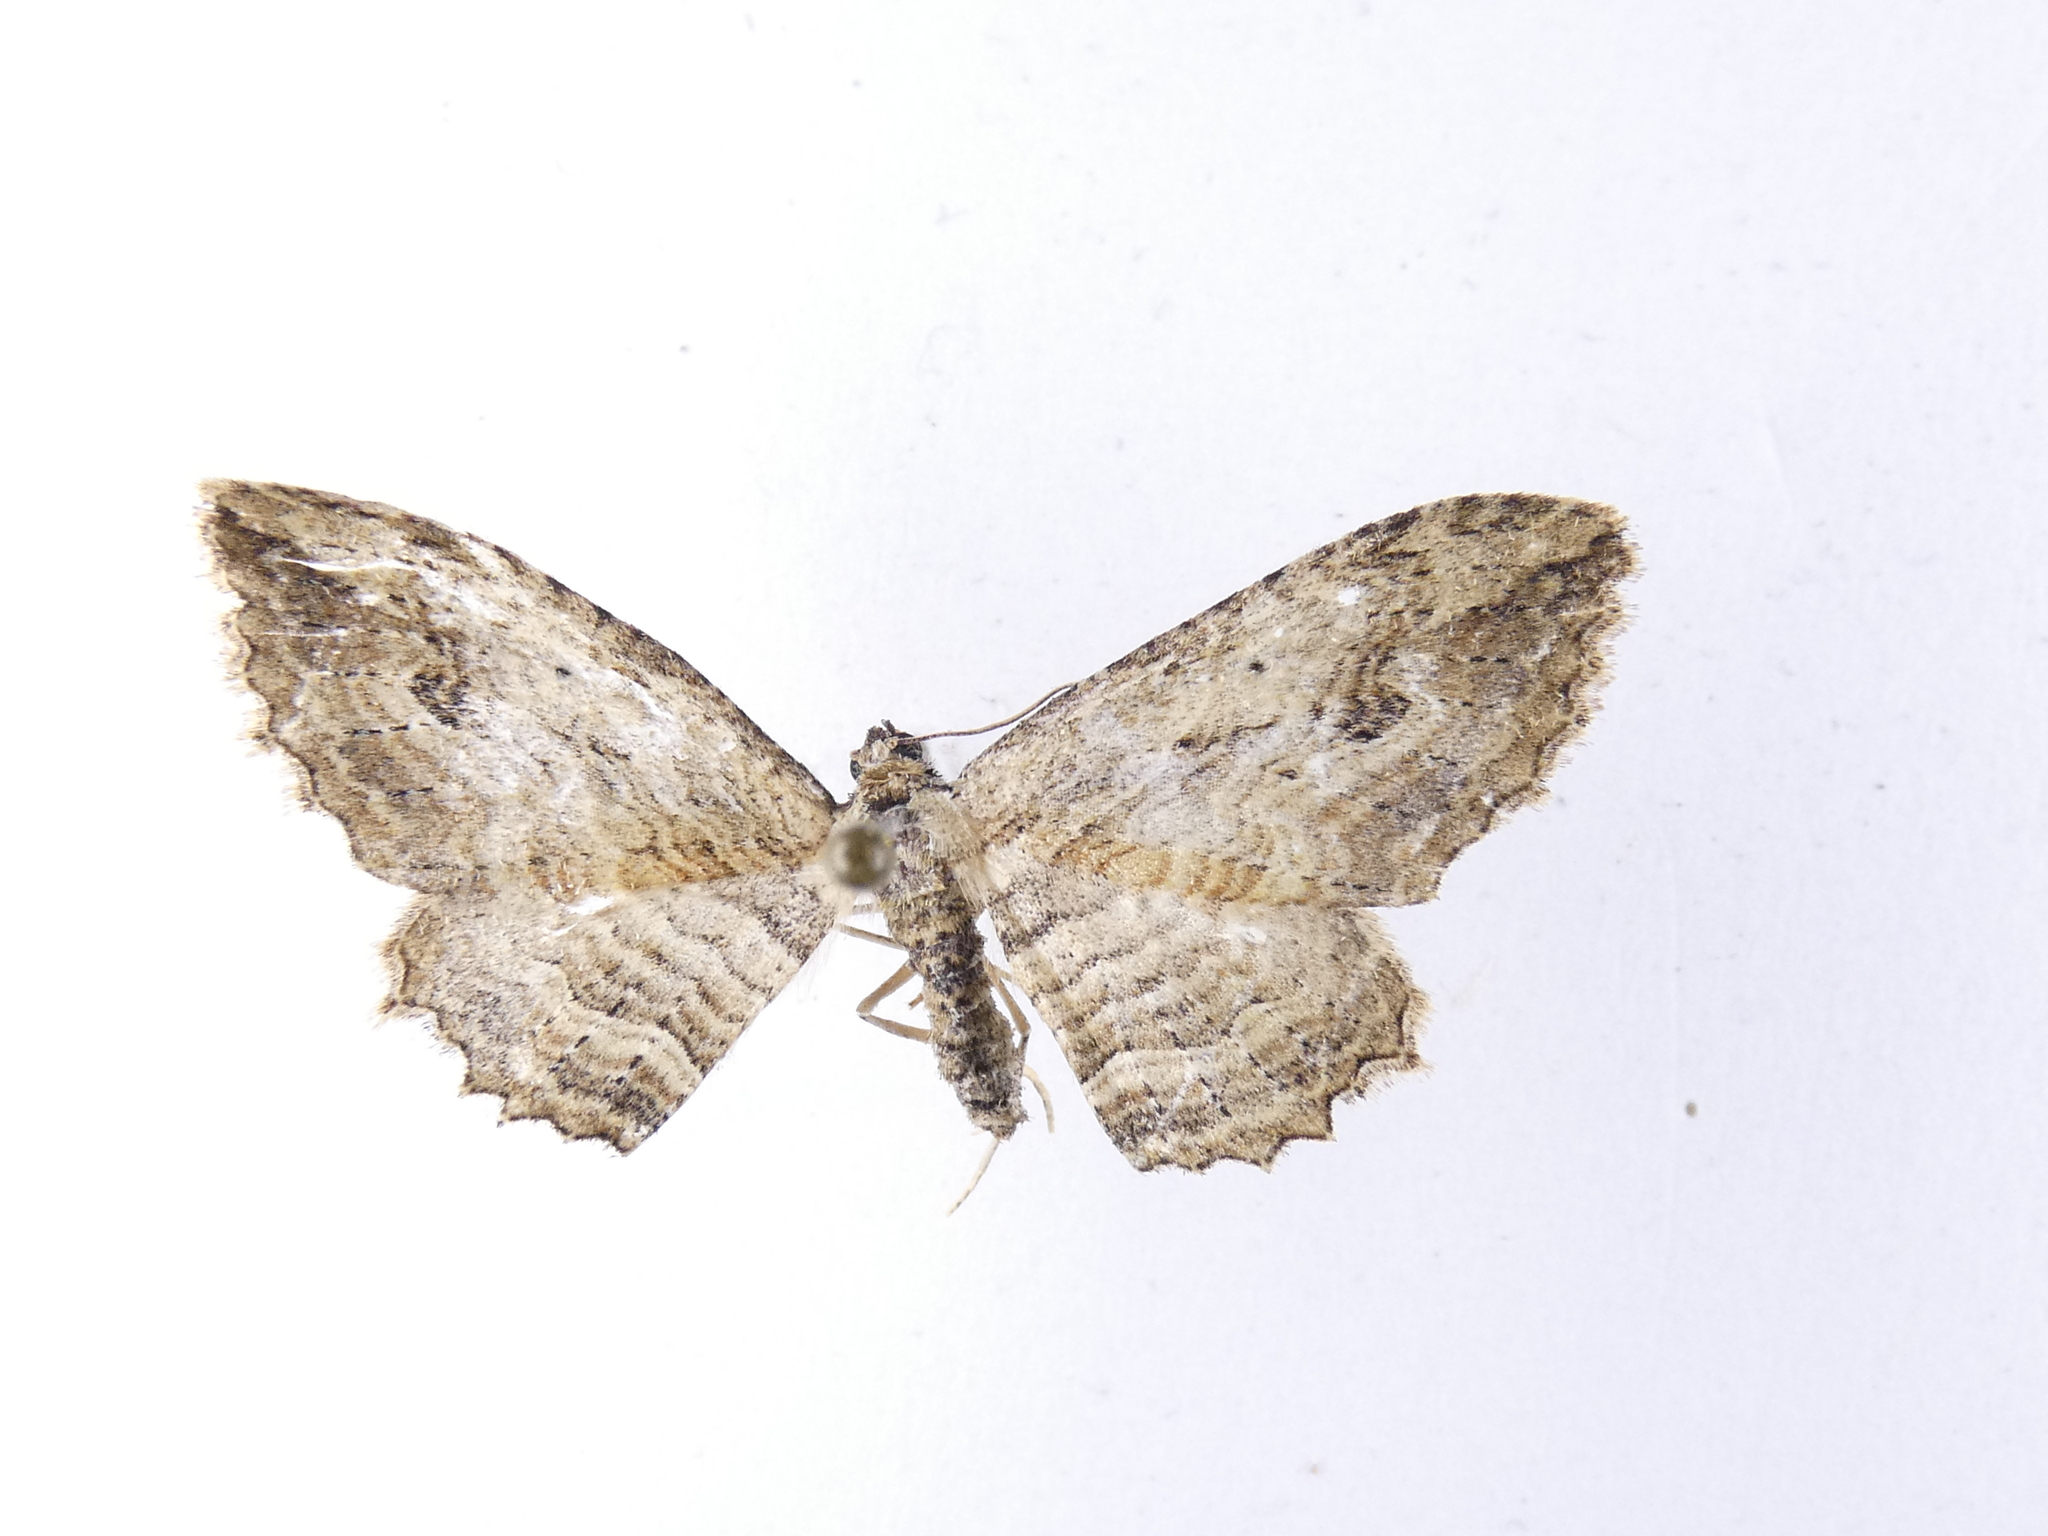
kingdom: Animalia
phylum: Arthropoda
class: Insecta
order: Lepidoptera
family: Geometridae
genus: Austrocidaria
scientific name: Austrocidaria bipartita
